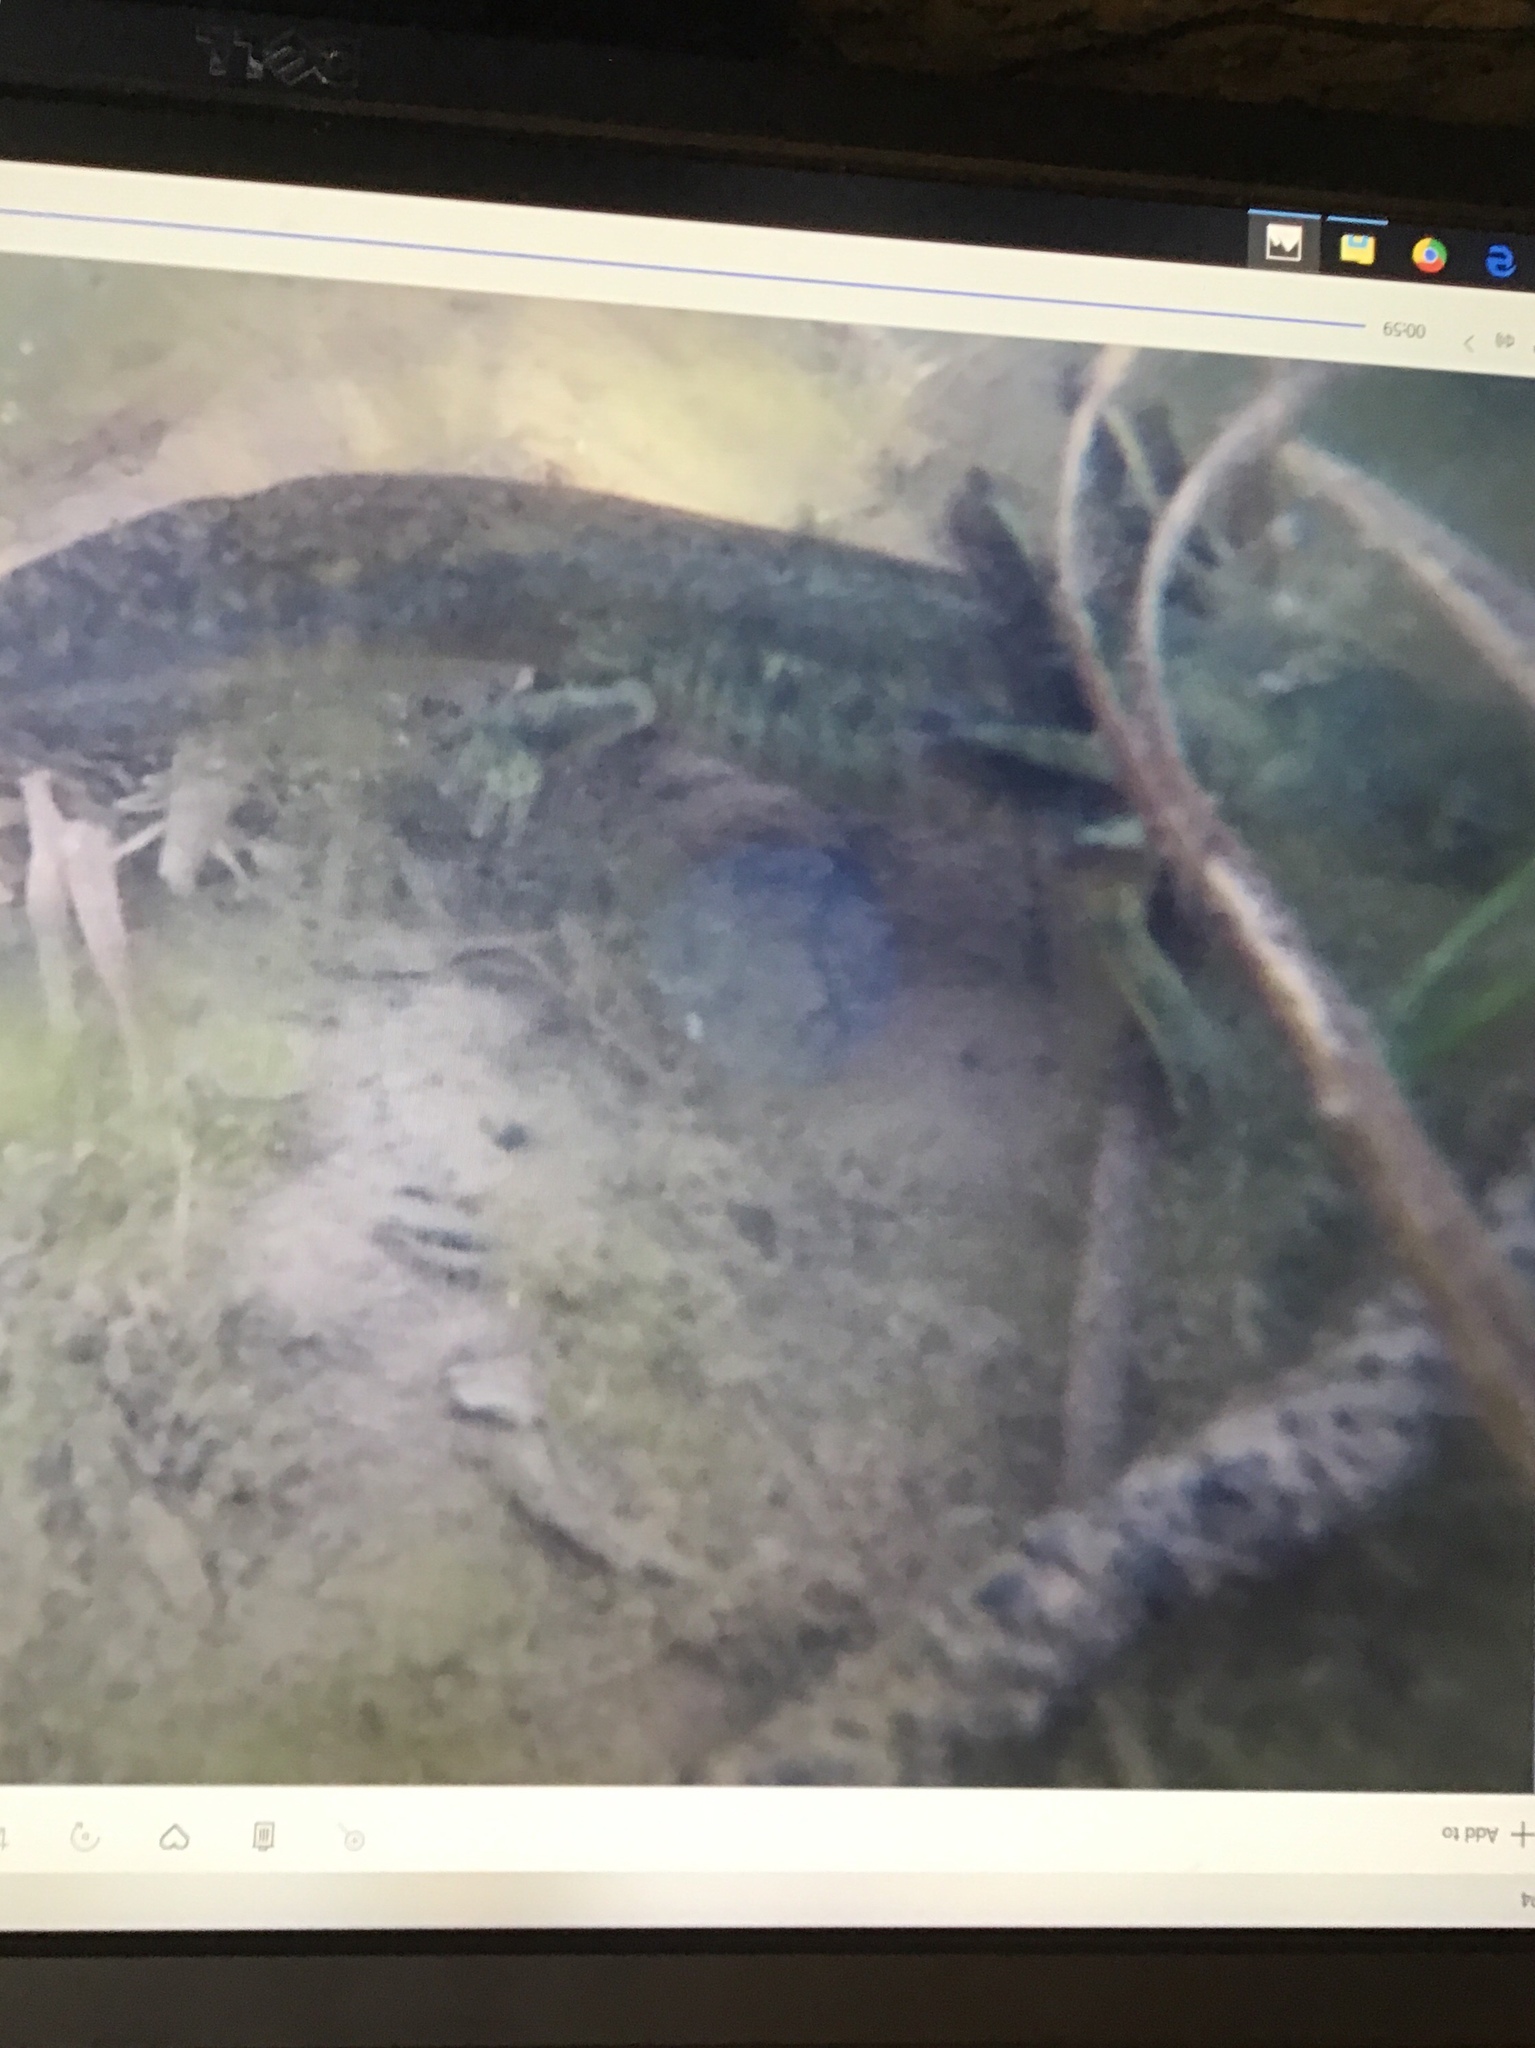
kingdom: Animalia
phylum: Chordata
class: Amphibia
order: Caudata
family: Ambystomatidae
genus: Ambystoma
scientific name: Ambystoma mavortium
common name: Western tiger salamander
